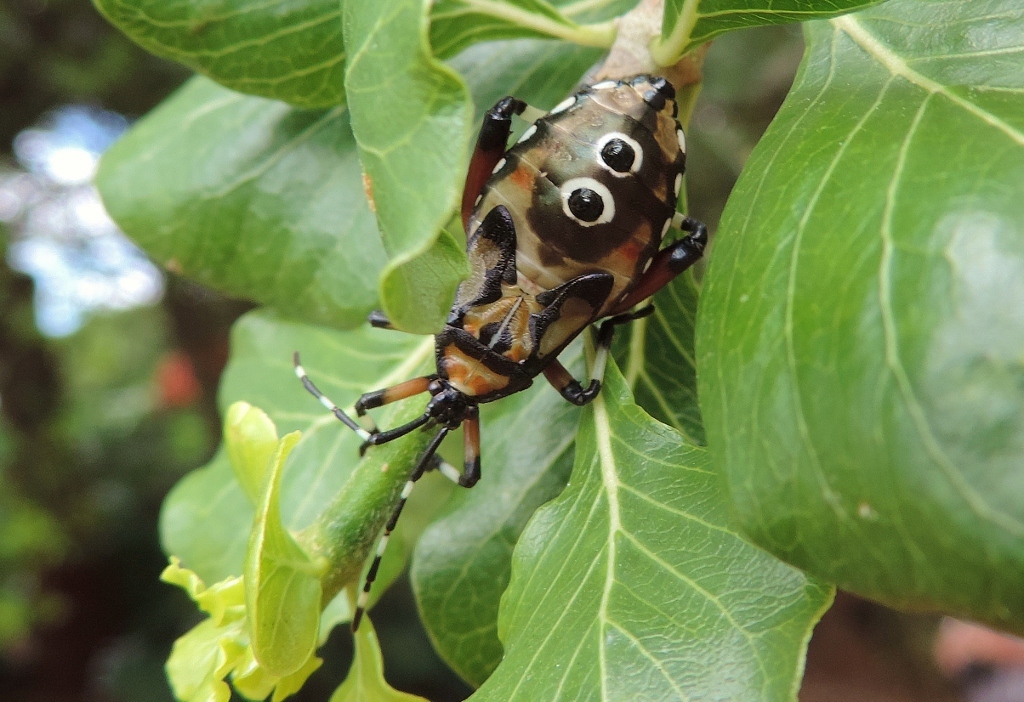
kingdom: Animalia
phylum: Arthropoda
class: Insecta
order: Hemiptera
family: Coreidae
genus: Carlisis
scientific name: Carlisis wahlbergi
